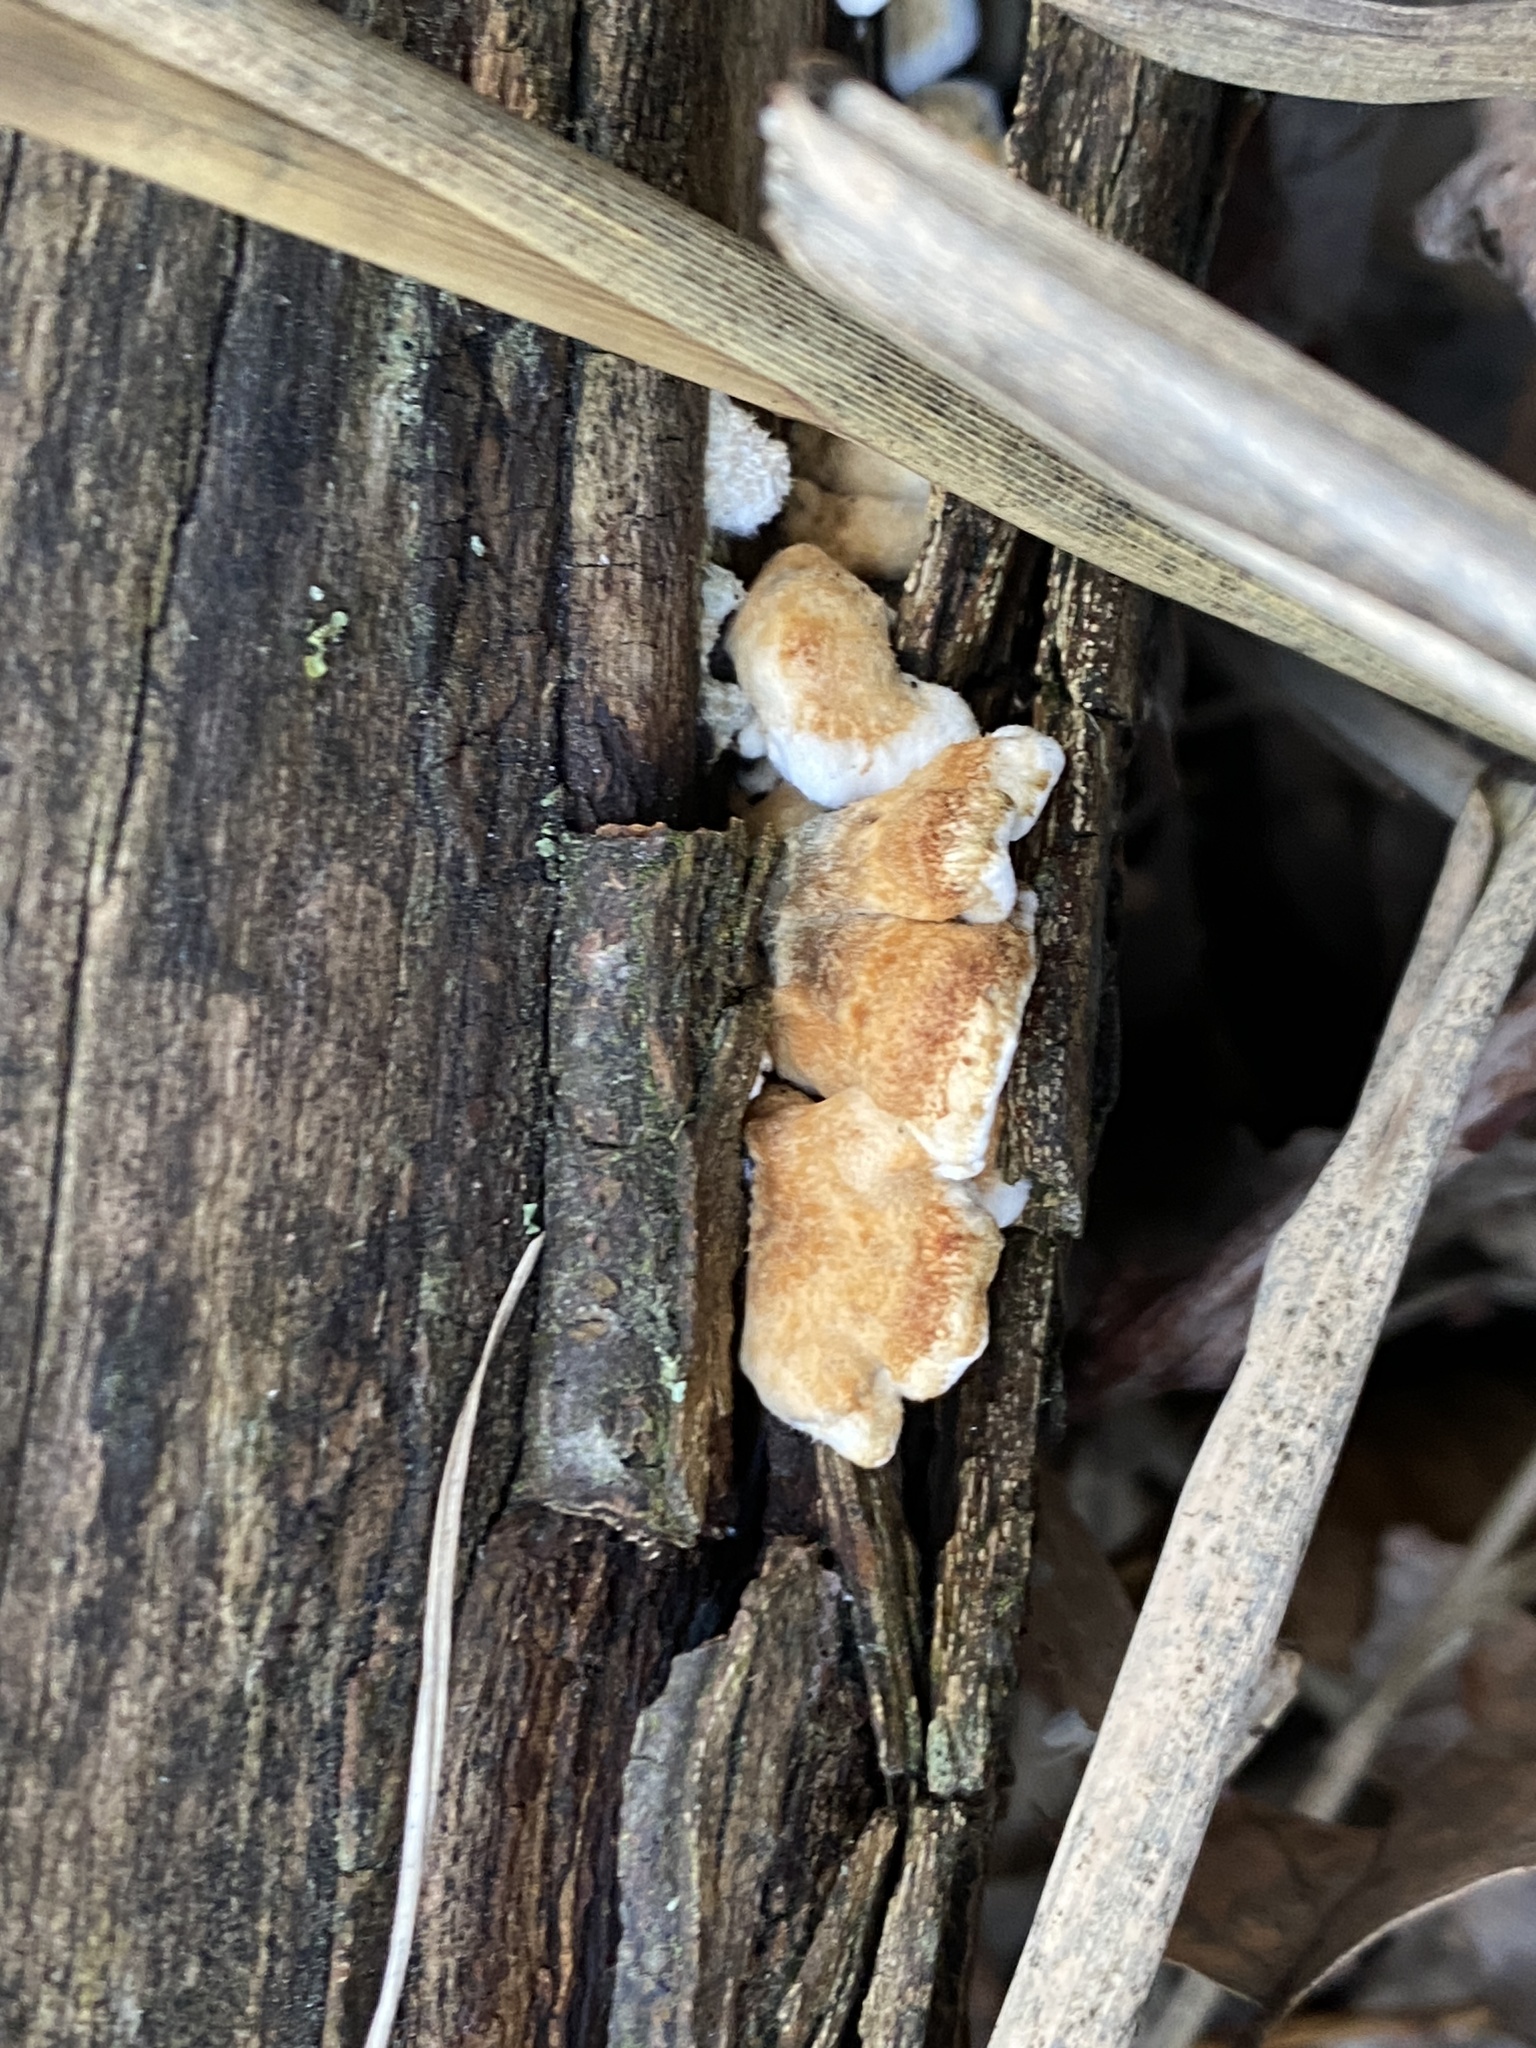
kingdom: Fungi
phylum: Basidiomycota
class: Agaricomycetes
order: Amylocorticiales
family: Amylocorticiaceae
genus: Plicaturopsis
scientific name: Plicaturopsis crispa
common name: Crimped gill
